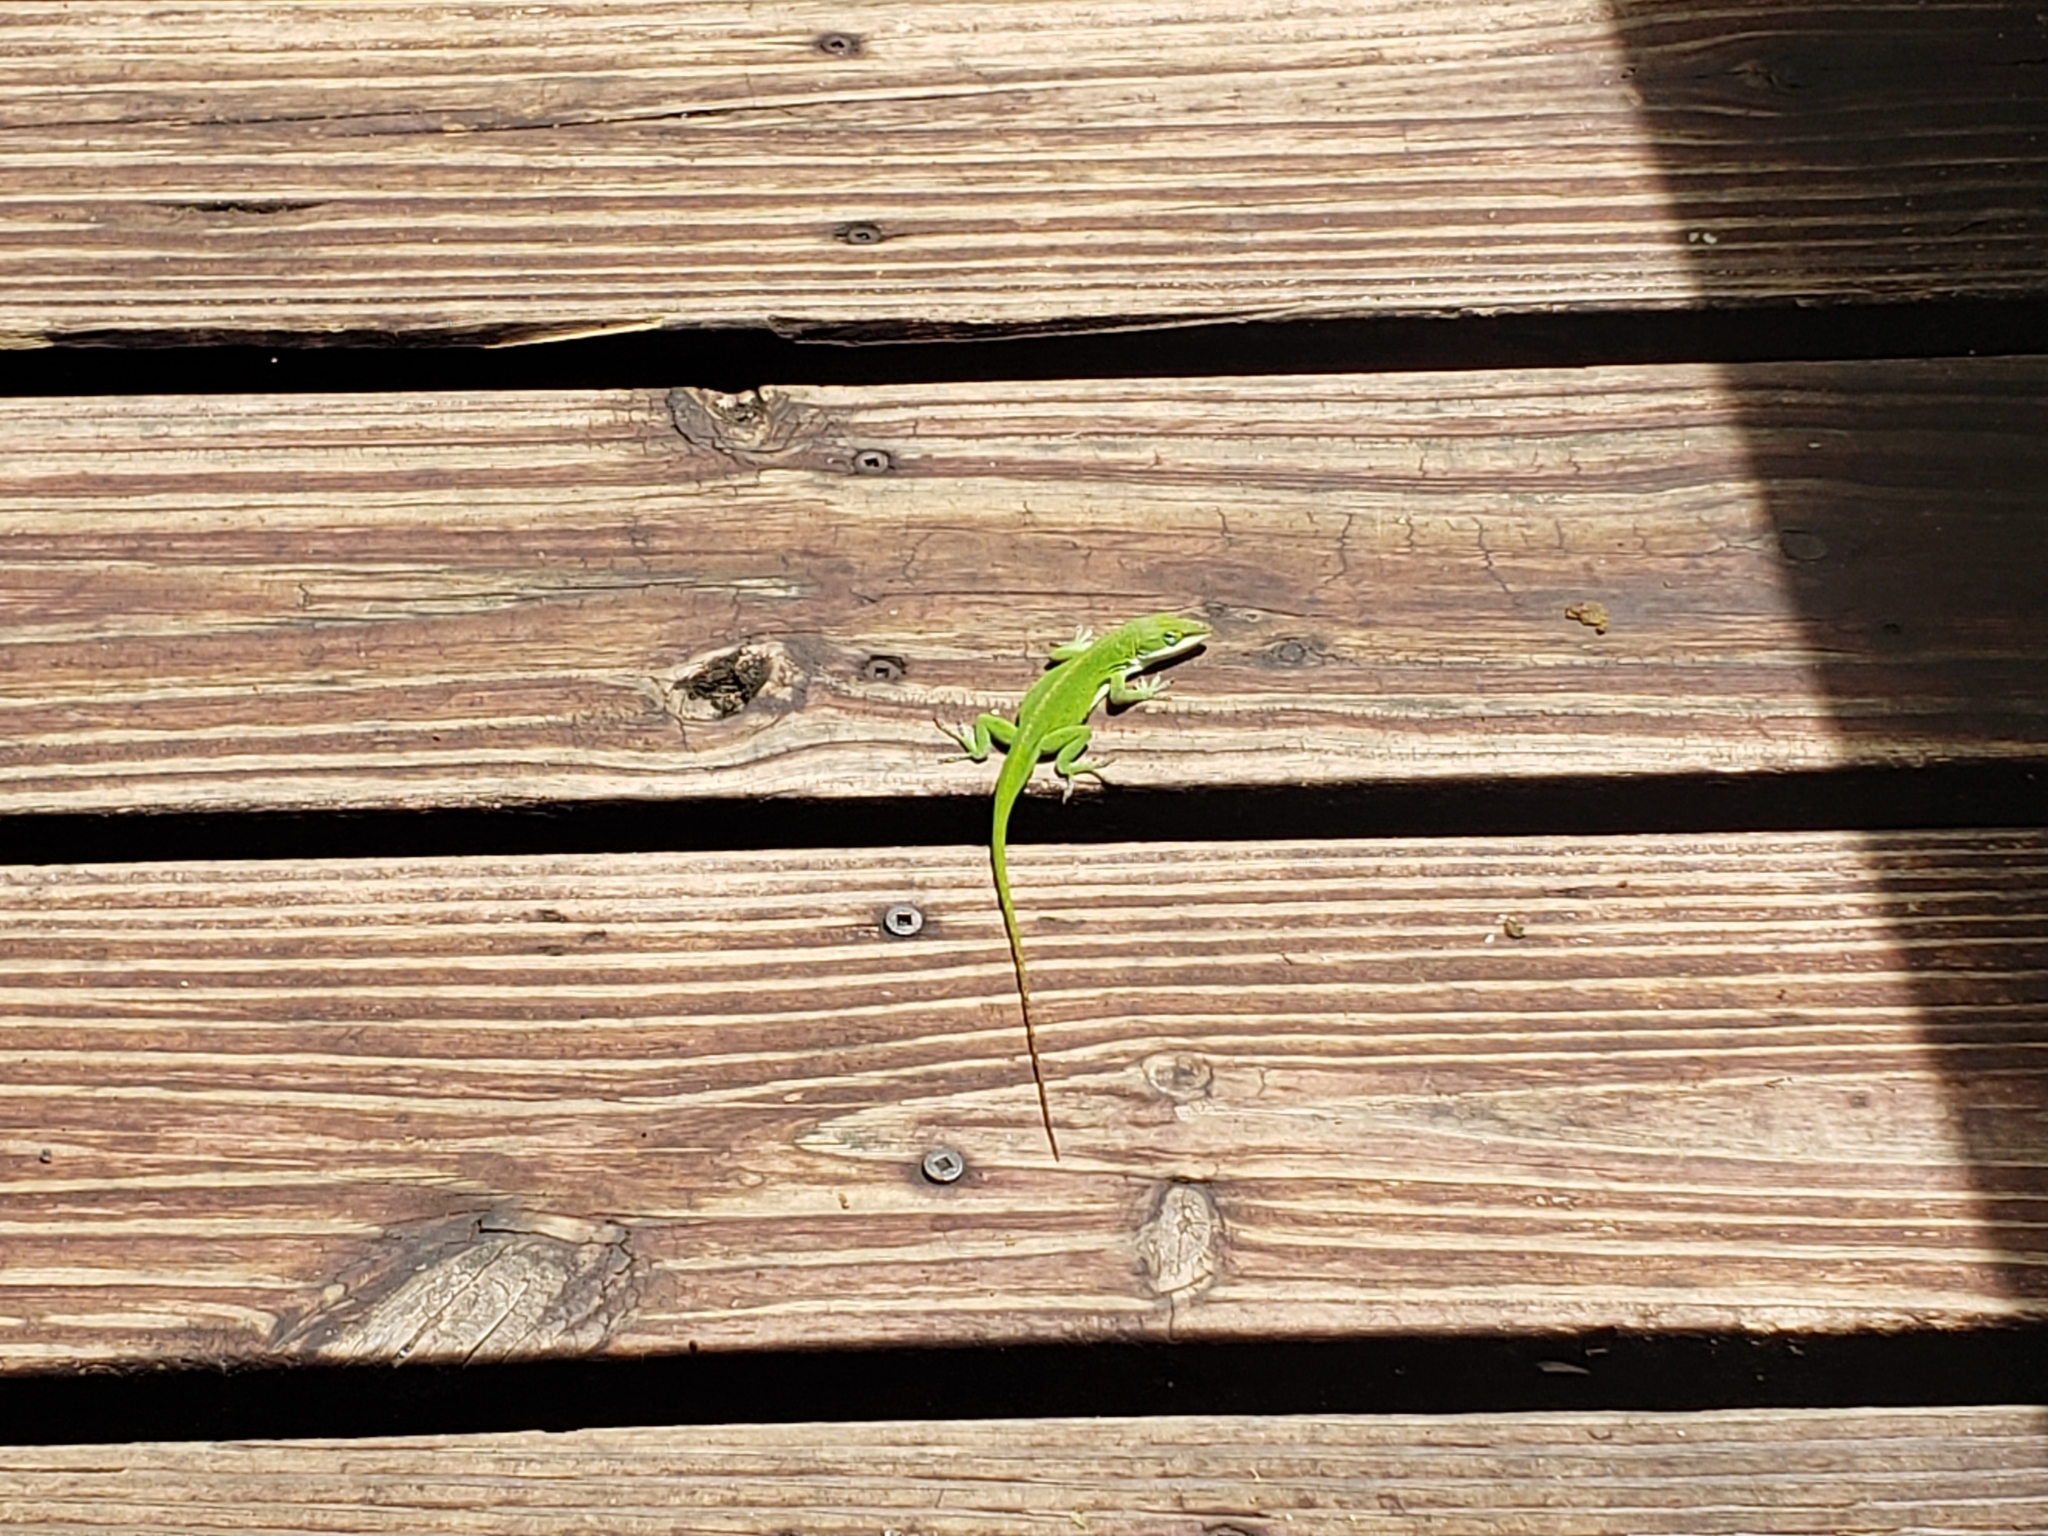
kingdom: Animalia
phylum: Chordata
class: Squamata
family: Dactyloidae
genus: Anolis
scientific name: Anolis carolinensis
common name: Green anole
